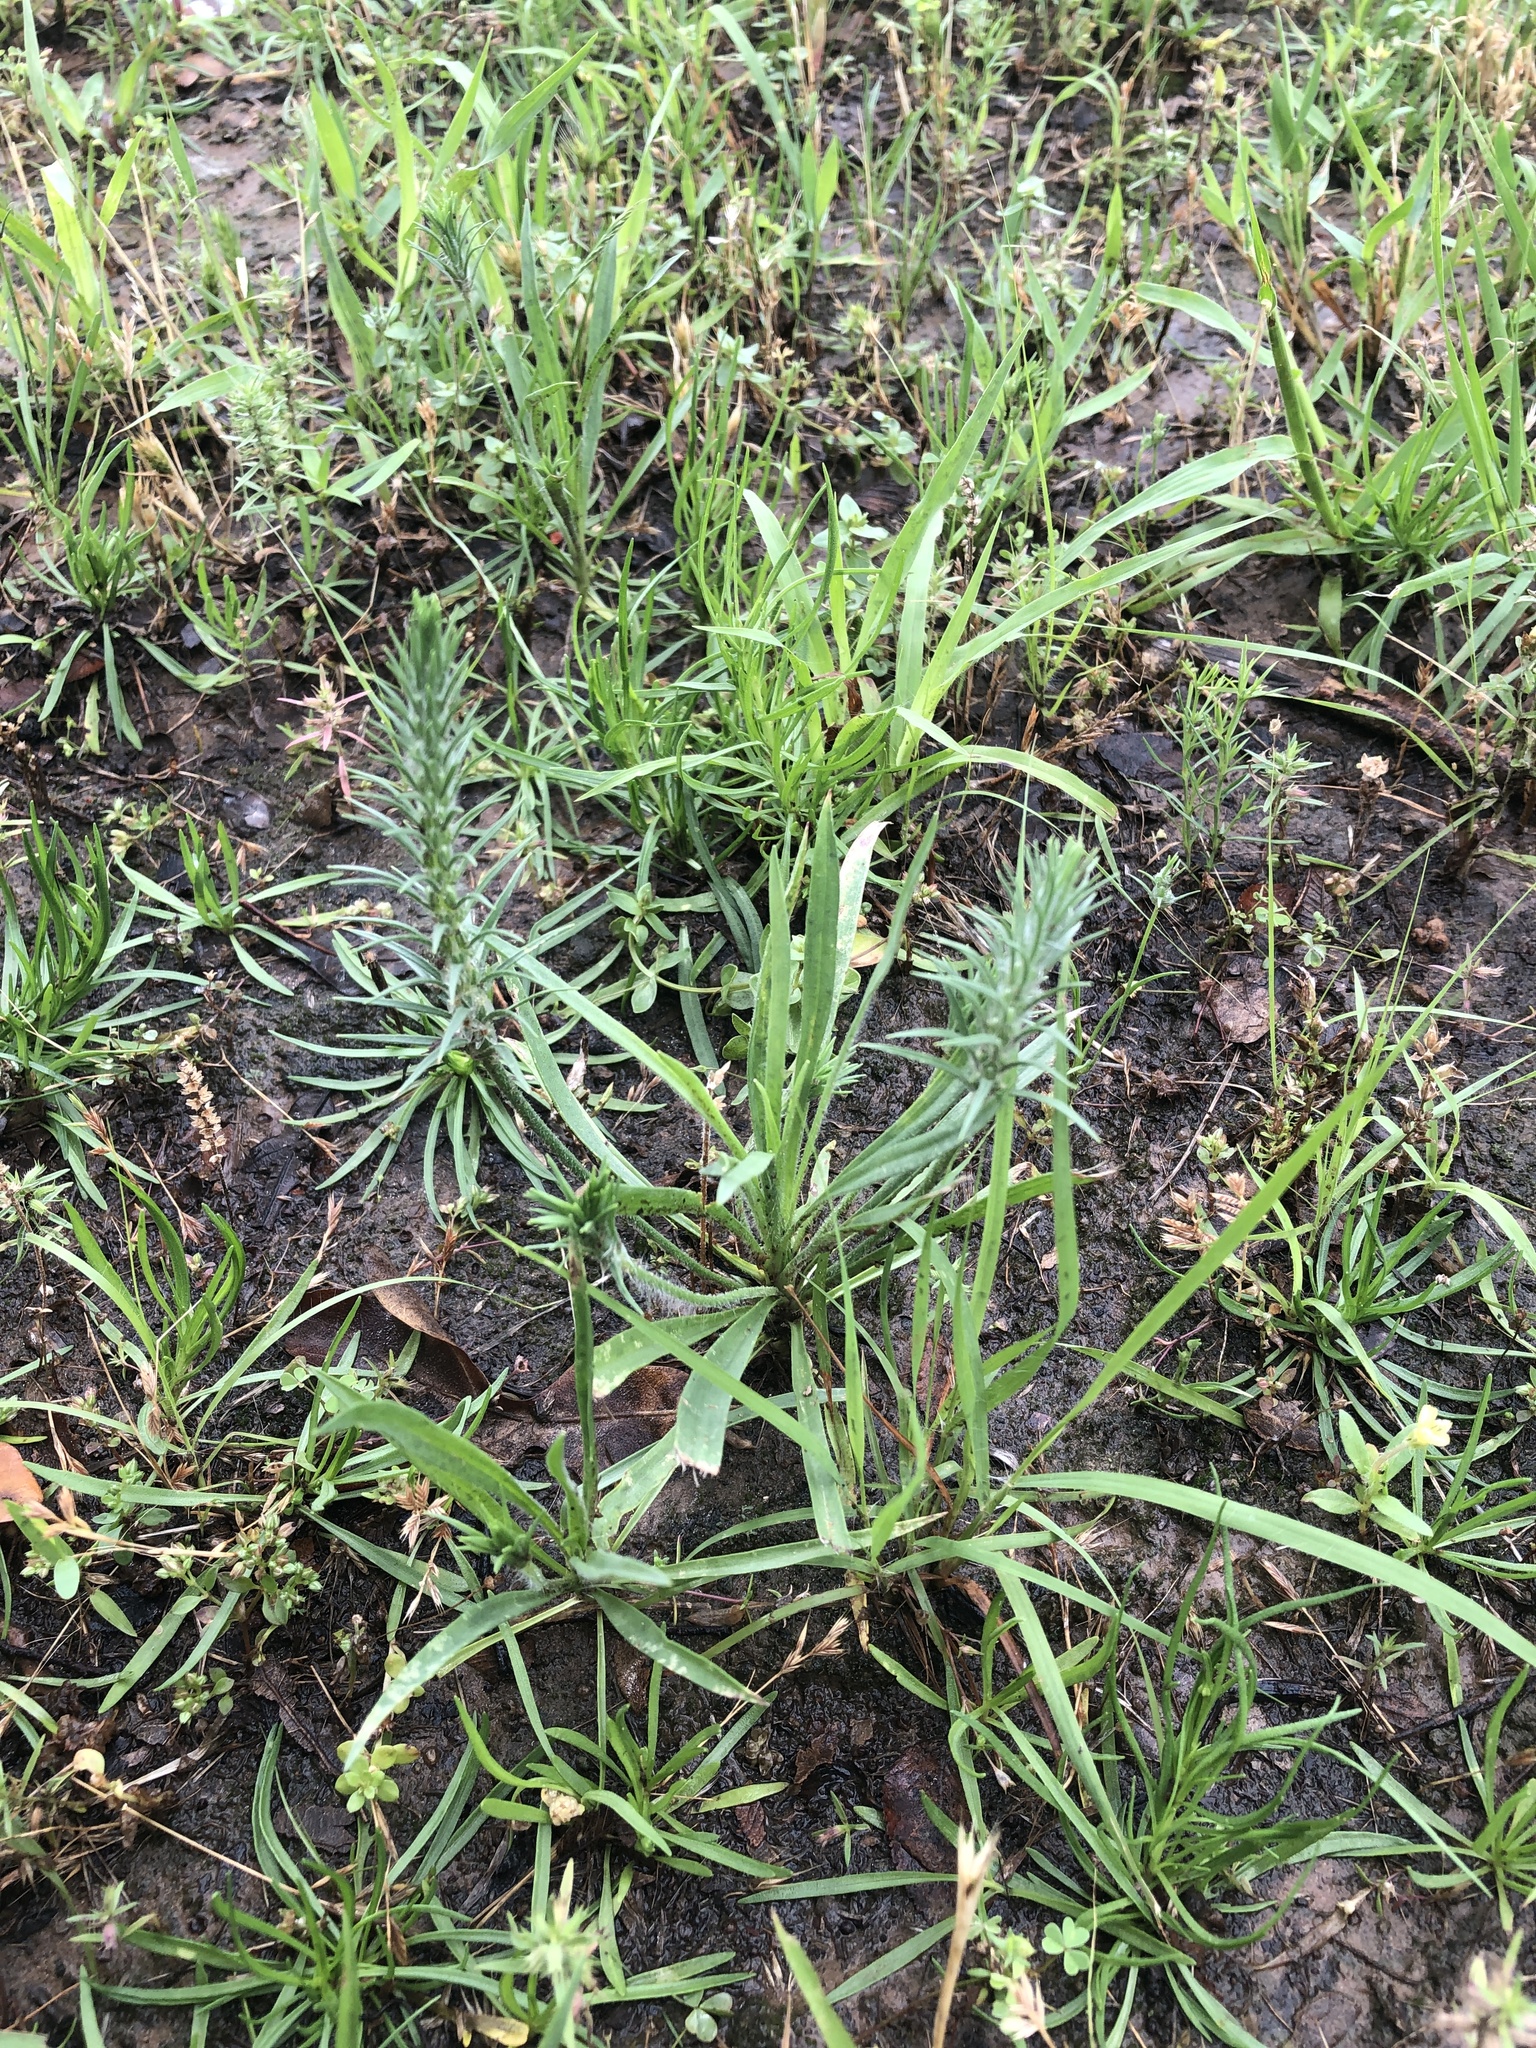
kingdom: Plantae
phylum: Tracheophyta
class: Magnoliopsida
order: Lamiales
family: Plantaginaceae
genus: Plantago
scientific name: Plantago aristata
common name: Bracted plantain
